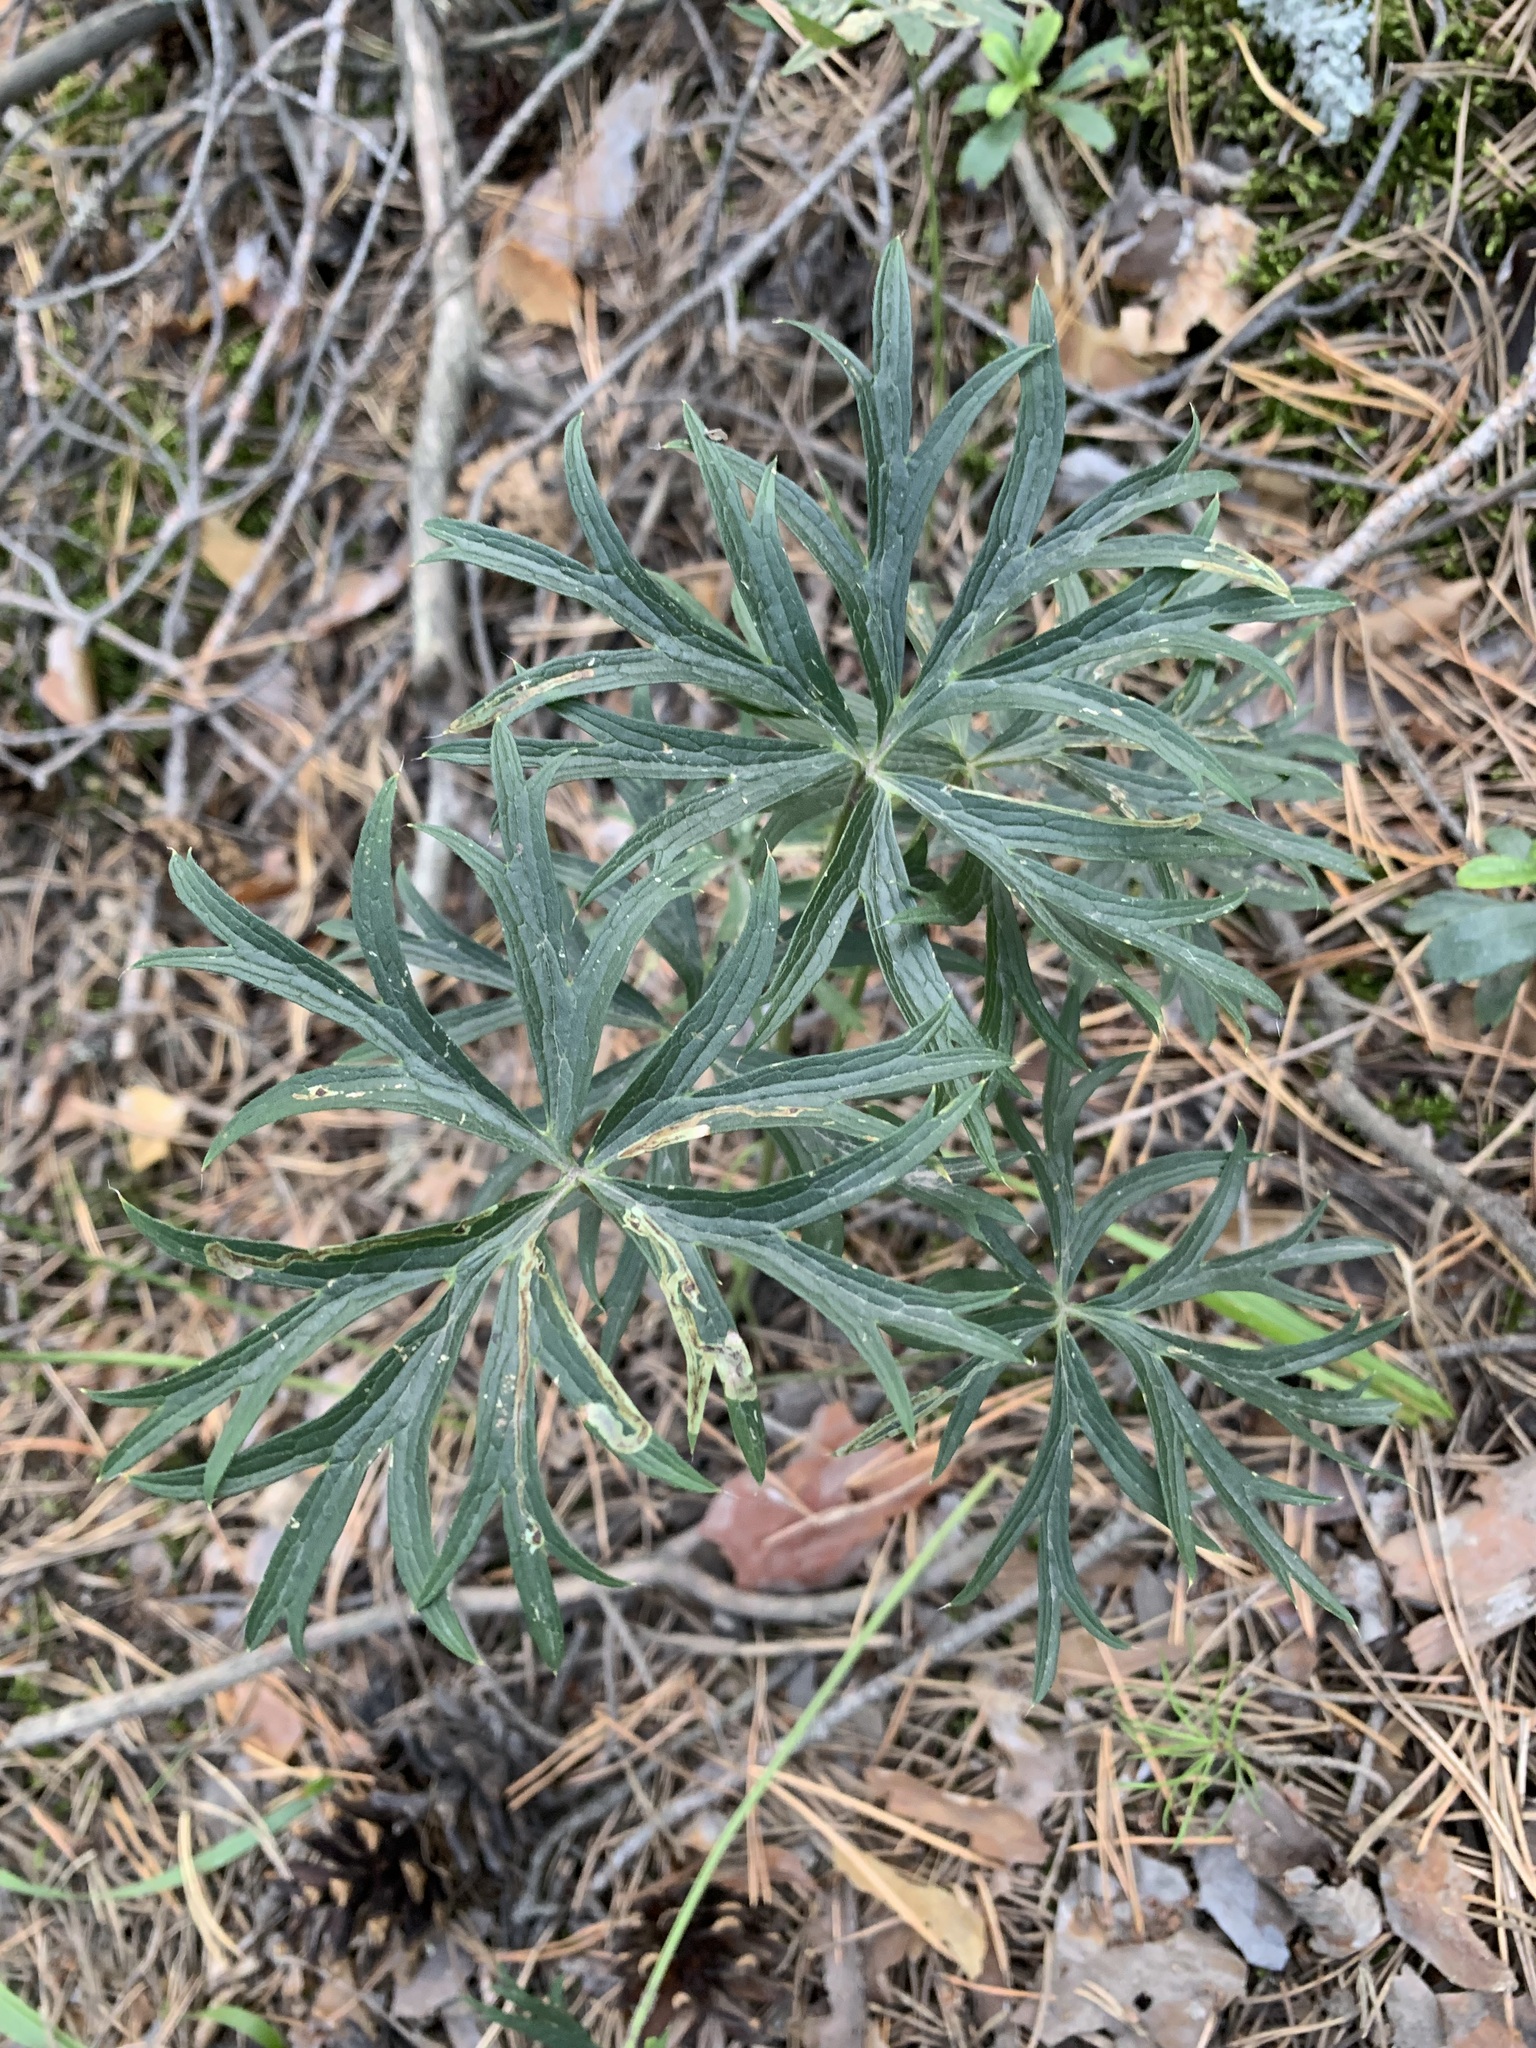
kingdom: Plantae
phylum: Tracheophyta
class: Magnoliopsida
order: Ranunculales
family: Ranunculaceae
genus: Pulsatilla
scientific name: Pulsatilla patens
